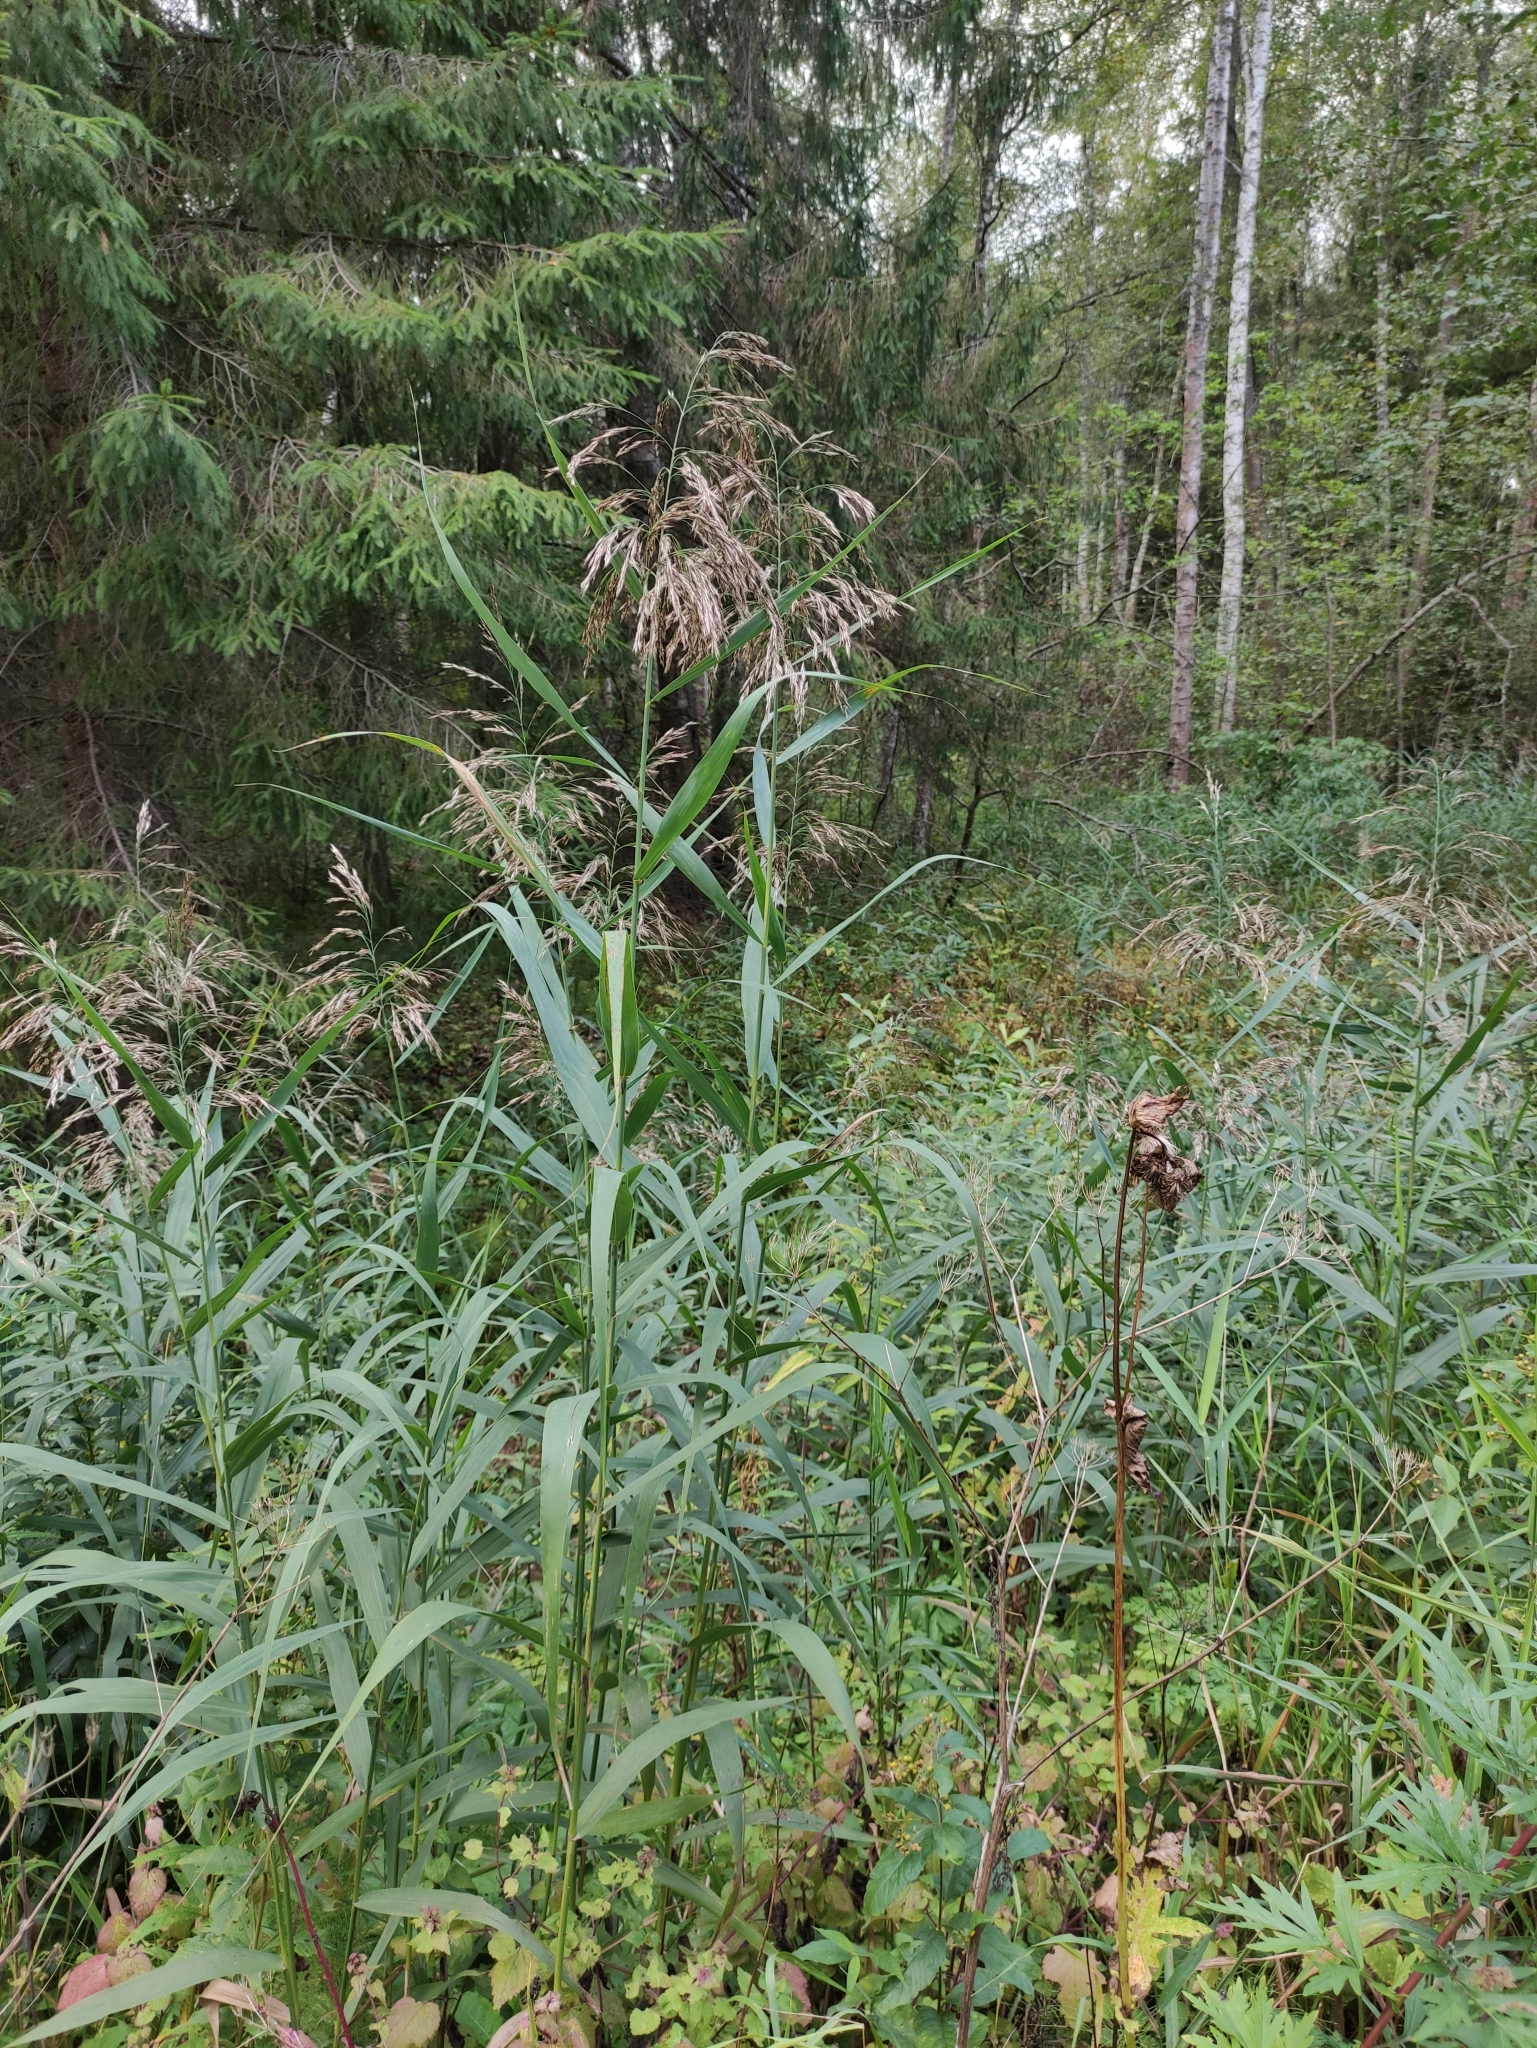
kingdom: Plantae
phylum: Tracheophyta
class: Liliopsida
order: Poales
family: Poaceae
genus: Phragmites
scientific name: Phragmites australis
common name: Common reed
